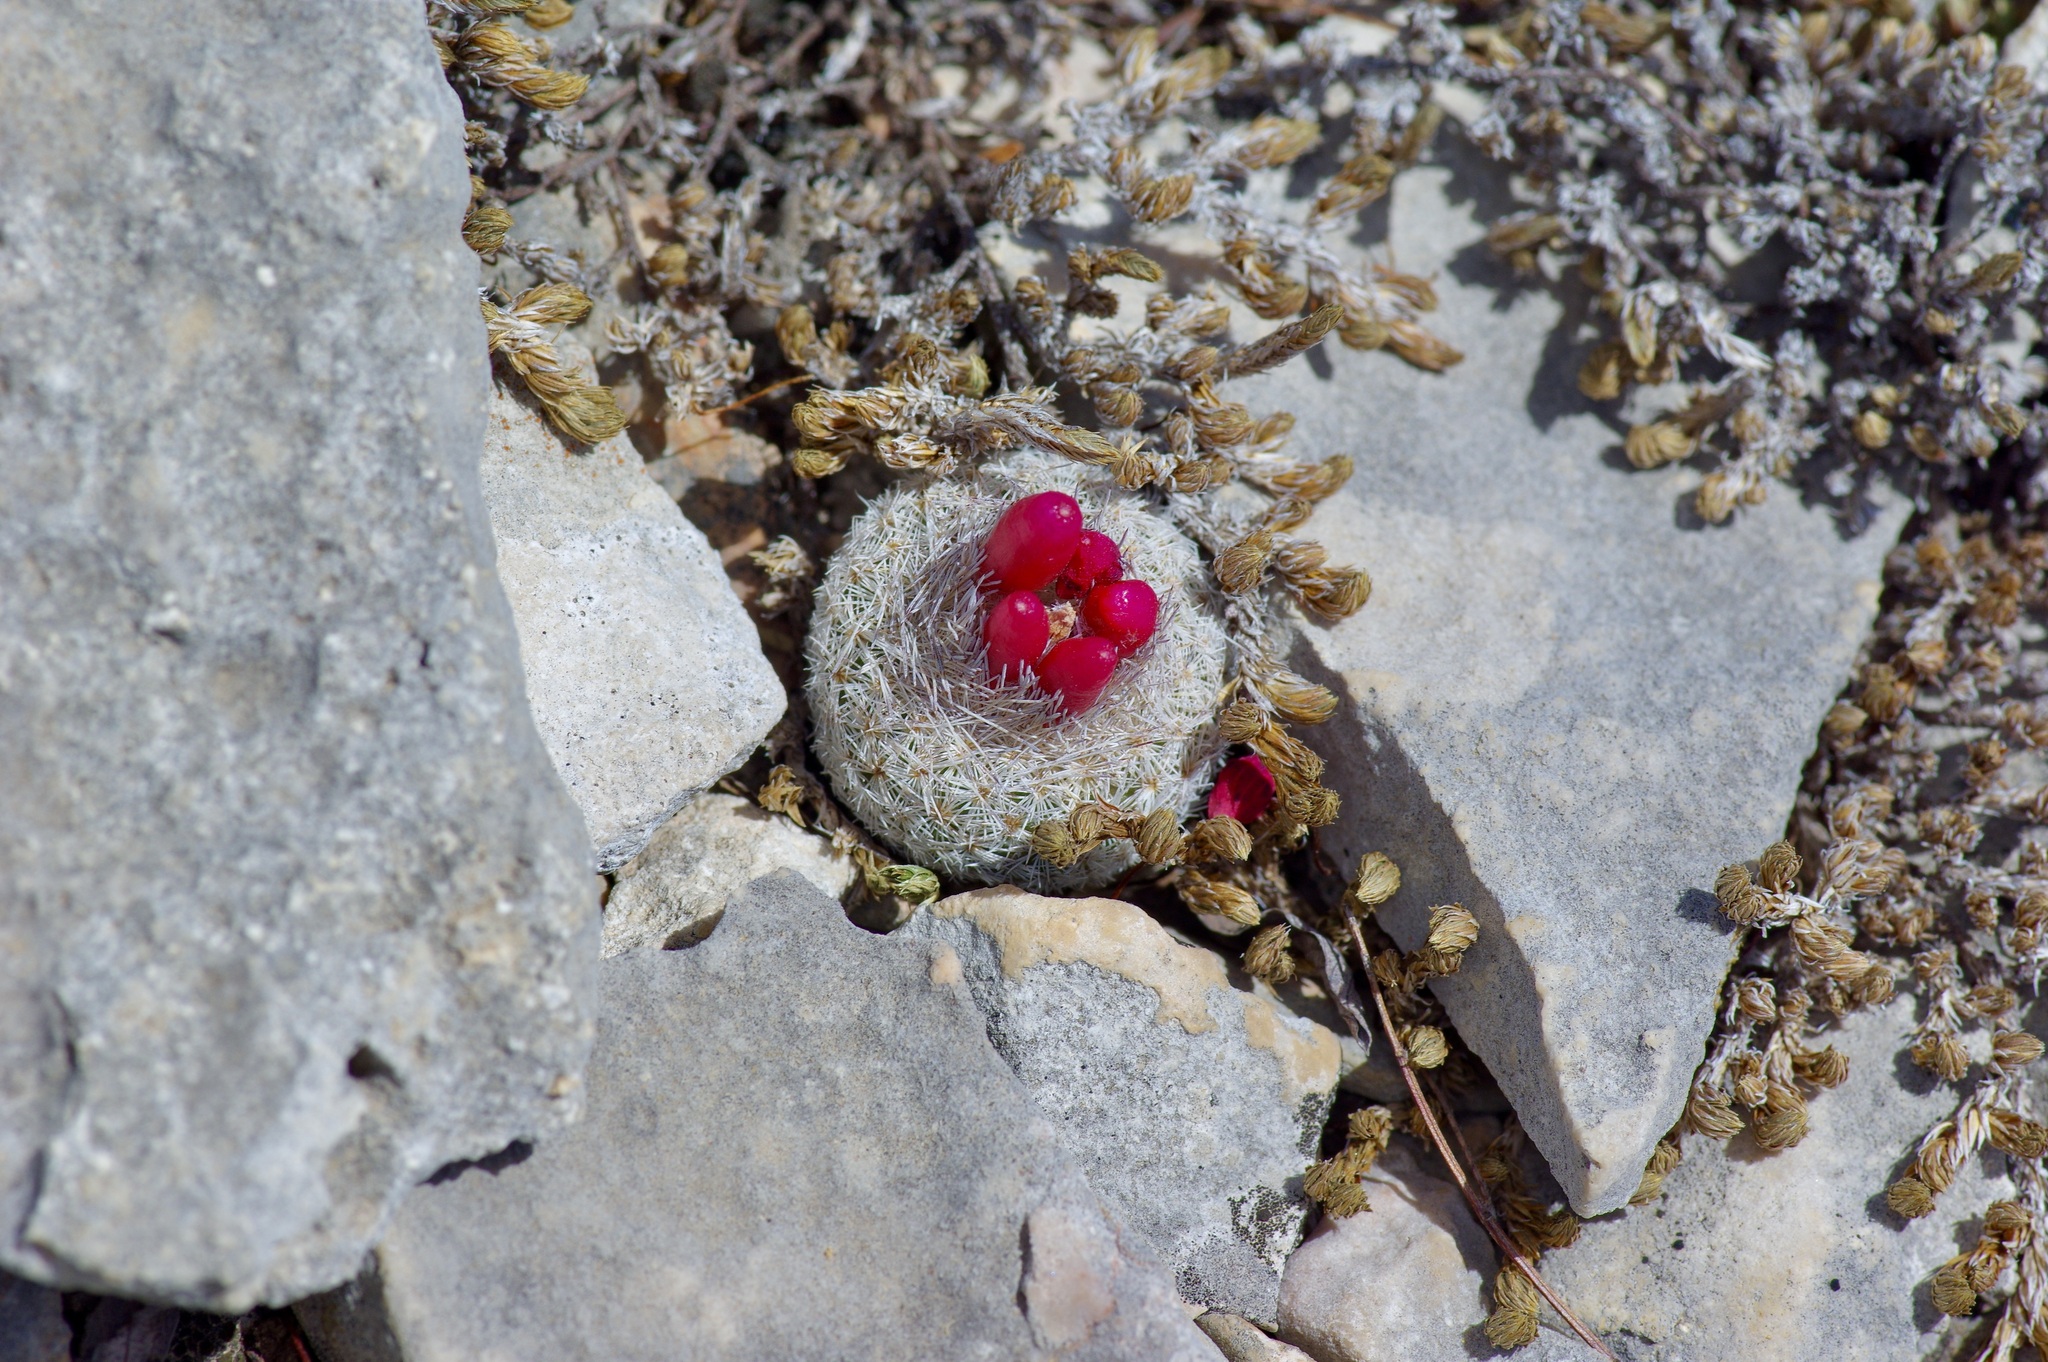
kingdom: Plantae
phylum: Tracheophyta
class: Magnoliopsida
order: Caryophyllales
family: Cactaceae
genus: Epithelantha
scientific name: Epithelantha micromeris
